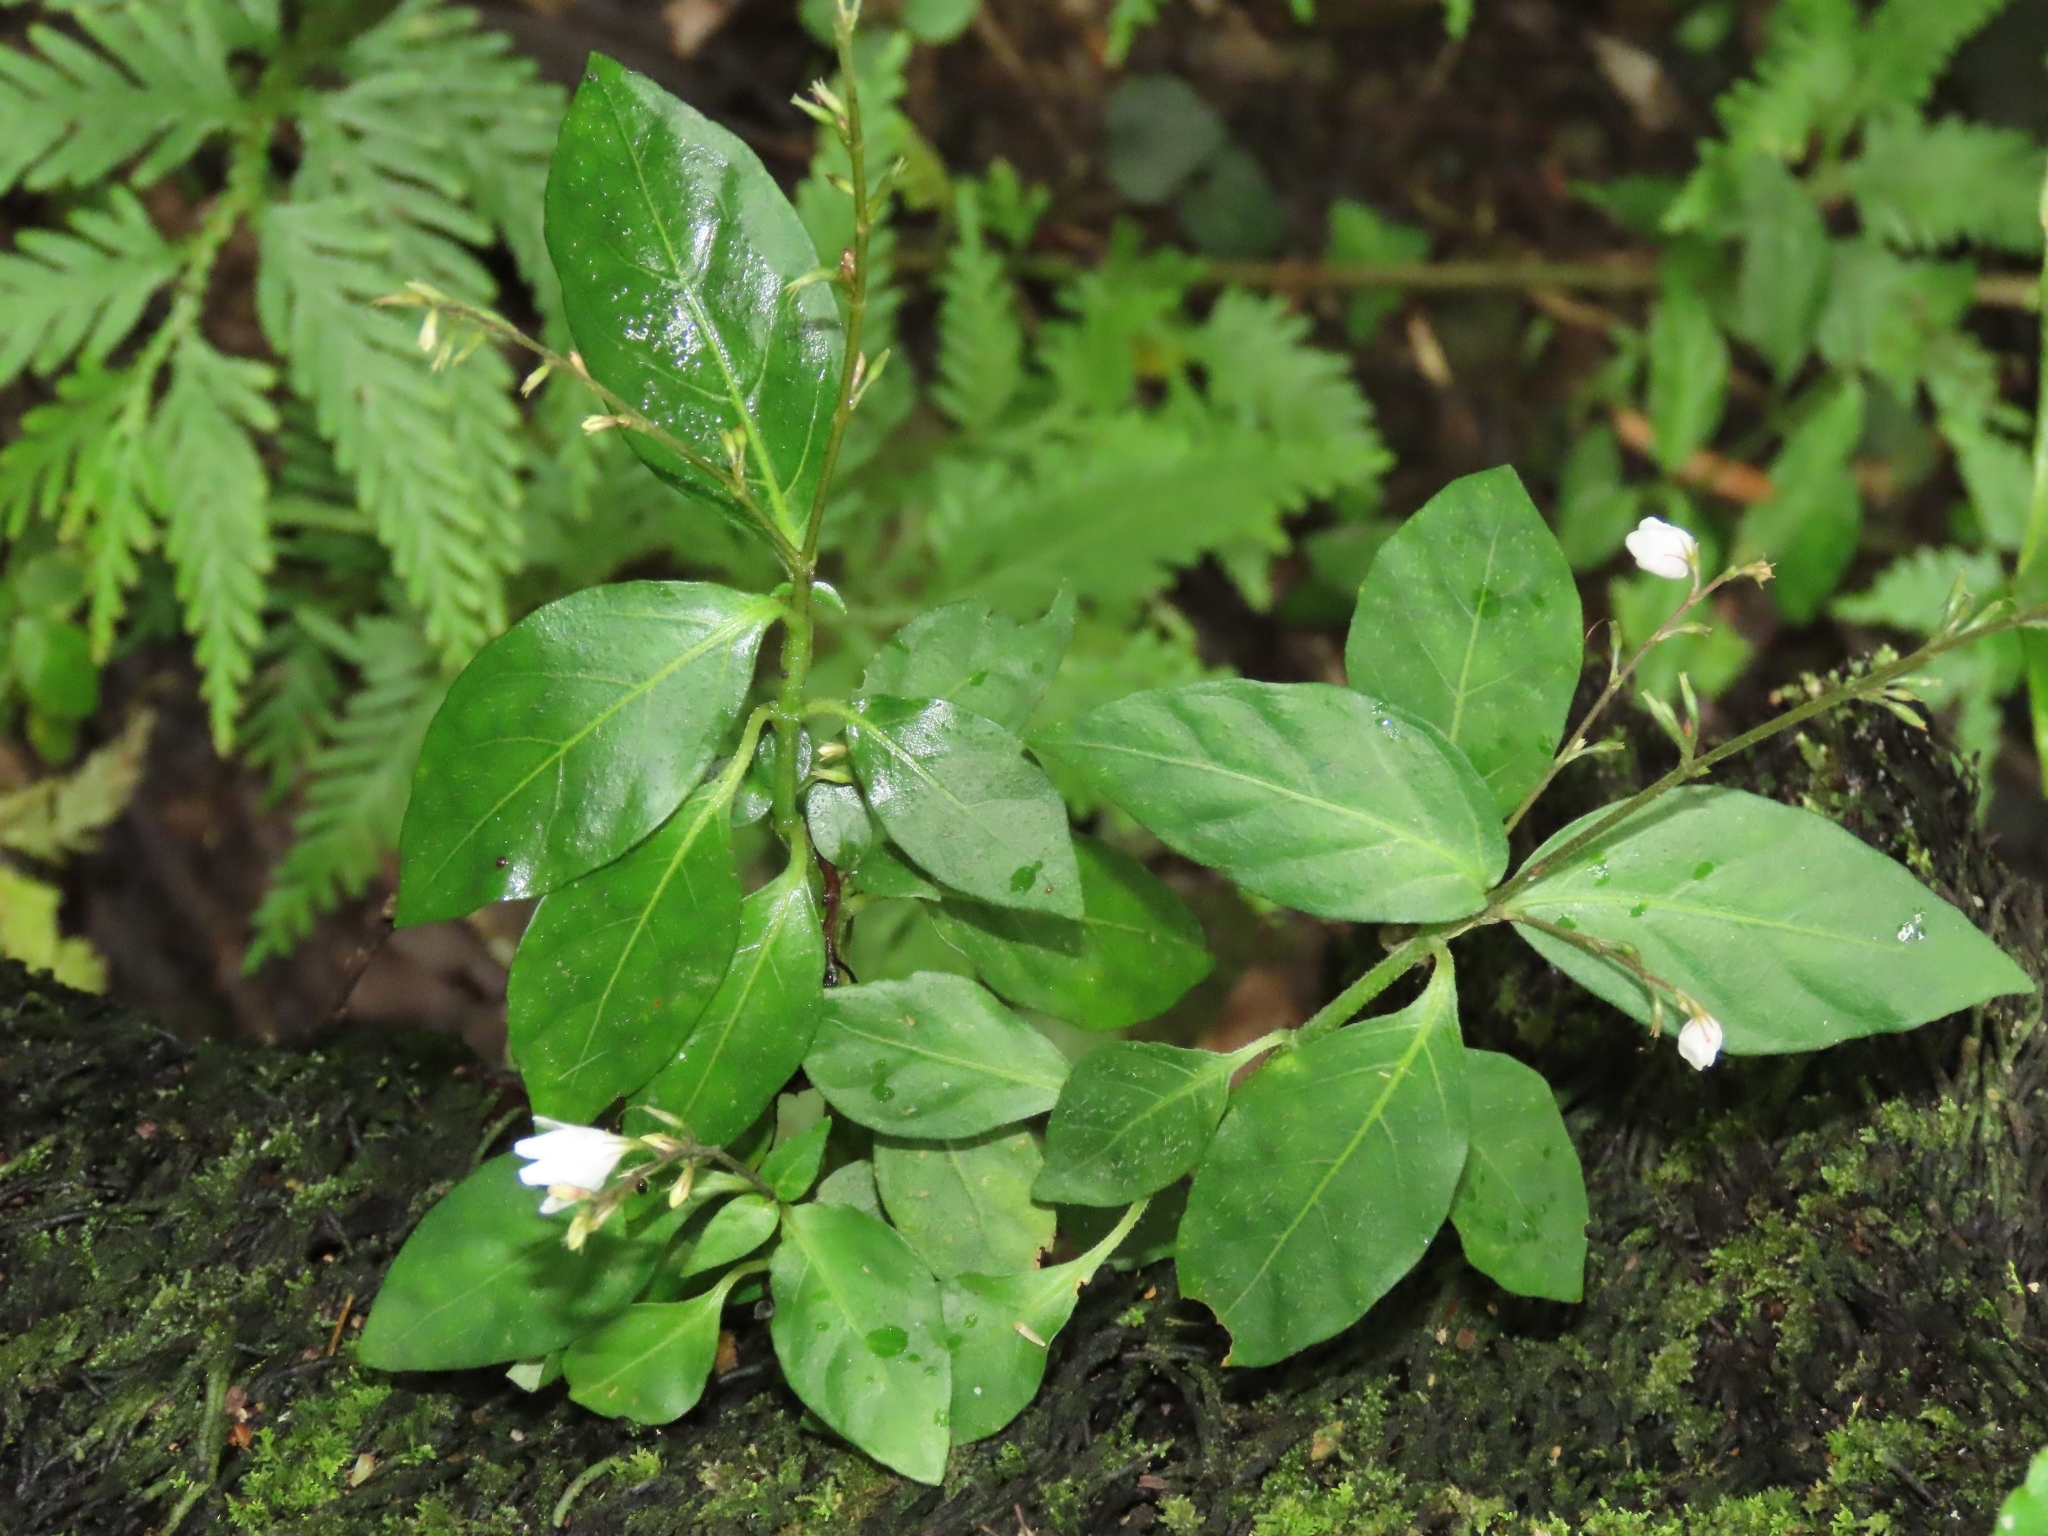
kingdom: Plantae
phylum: Tracheophyta
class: Magnoliopsida
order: Lamiales
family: Acanthaceae
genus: Codonacanthus
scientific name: Codonacanthus pauciflorus
